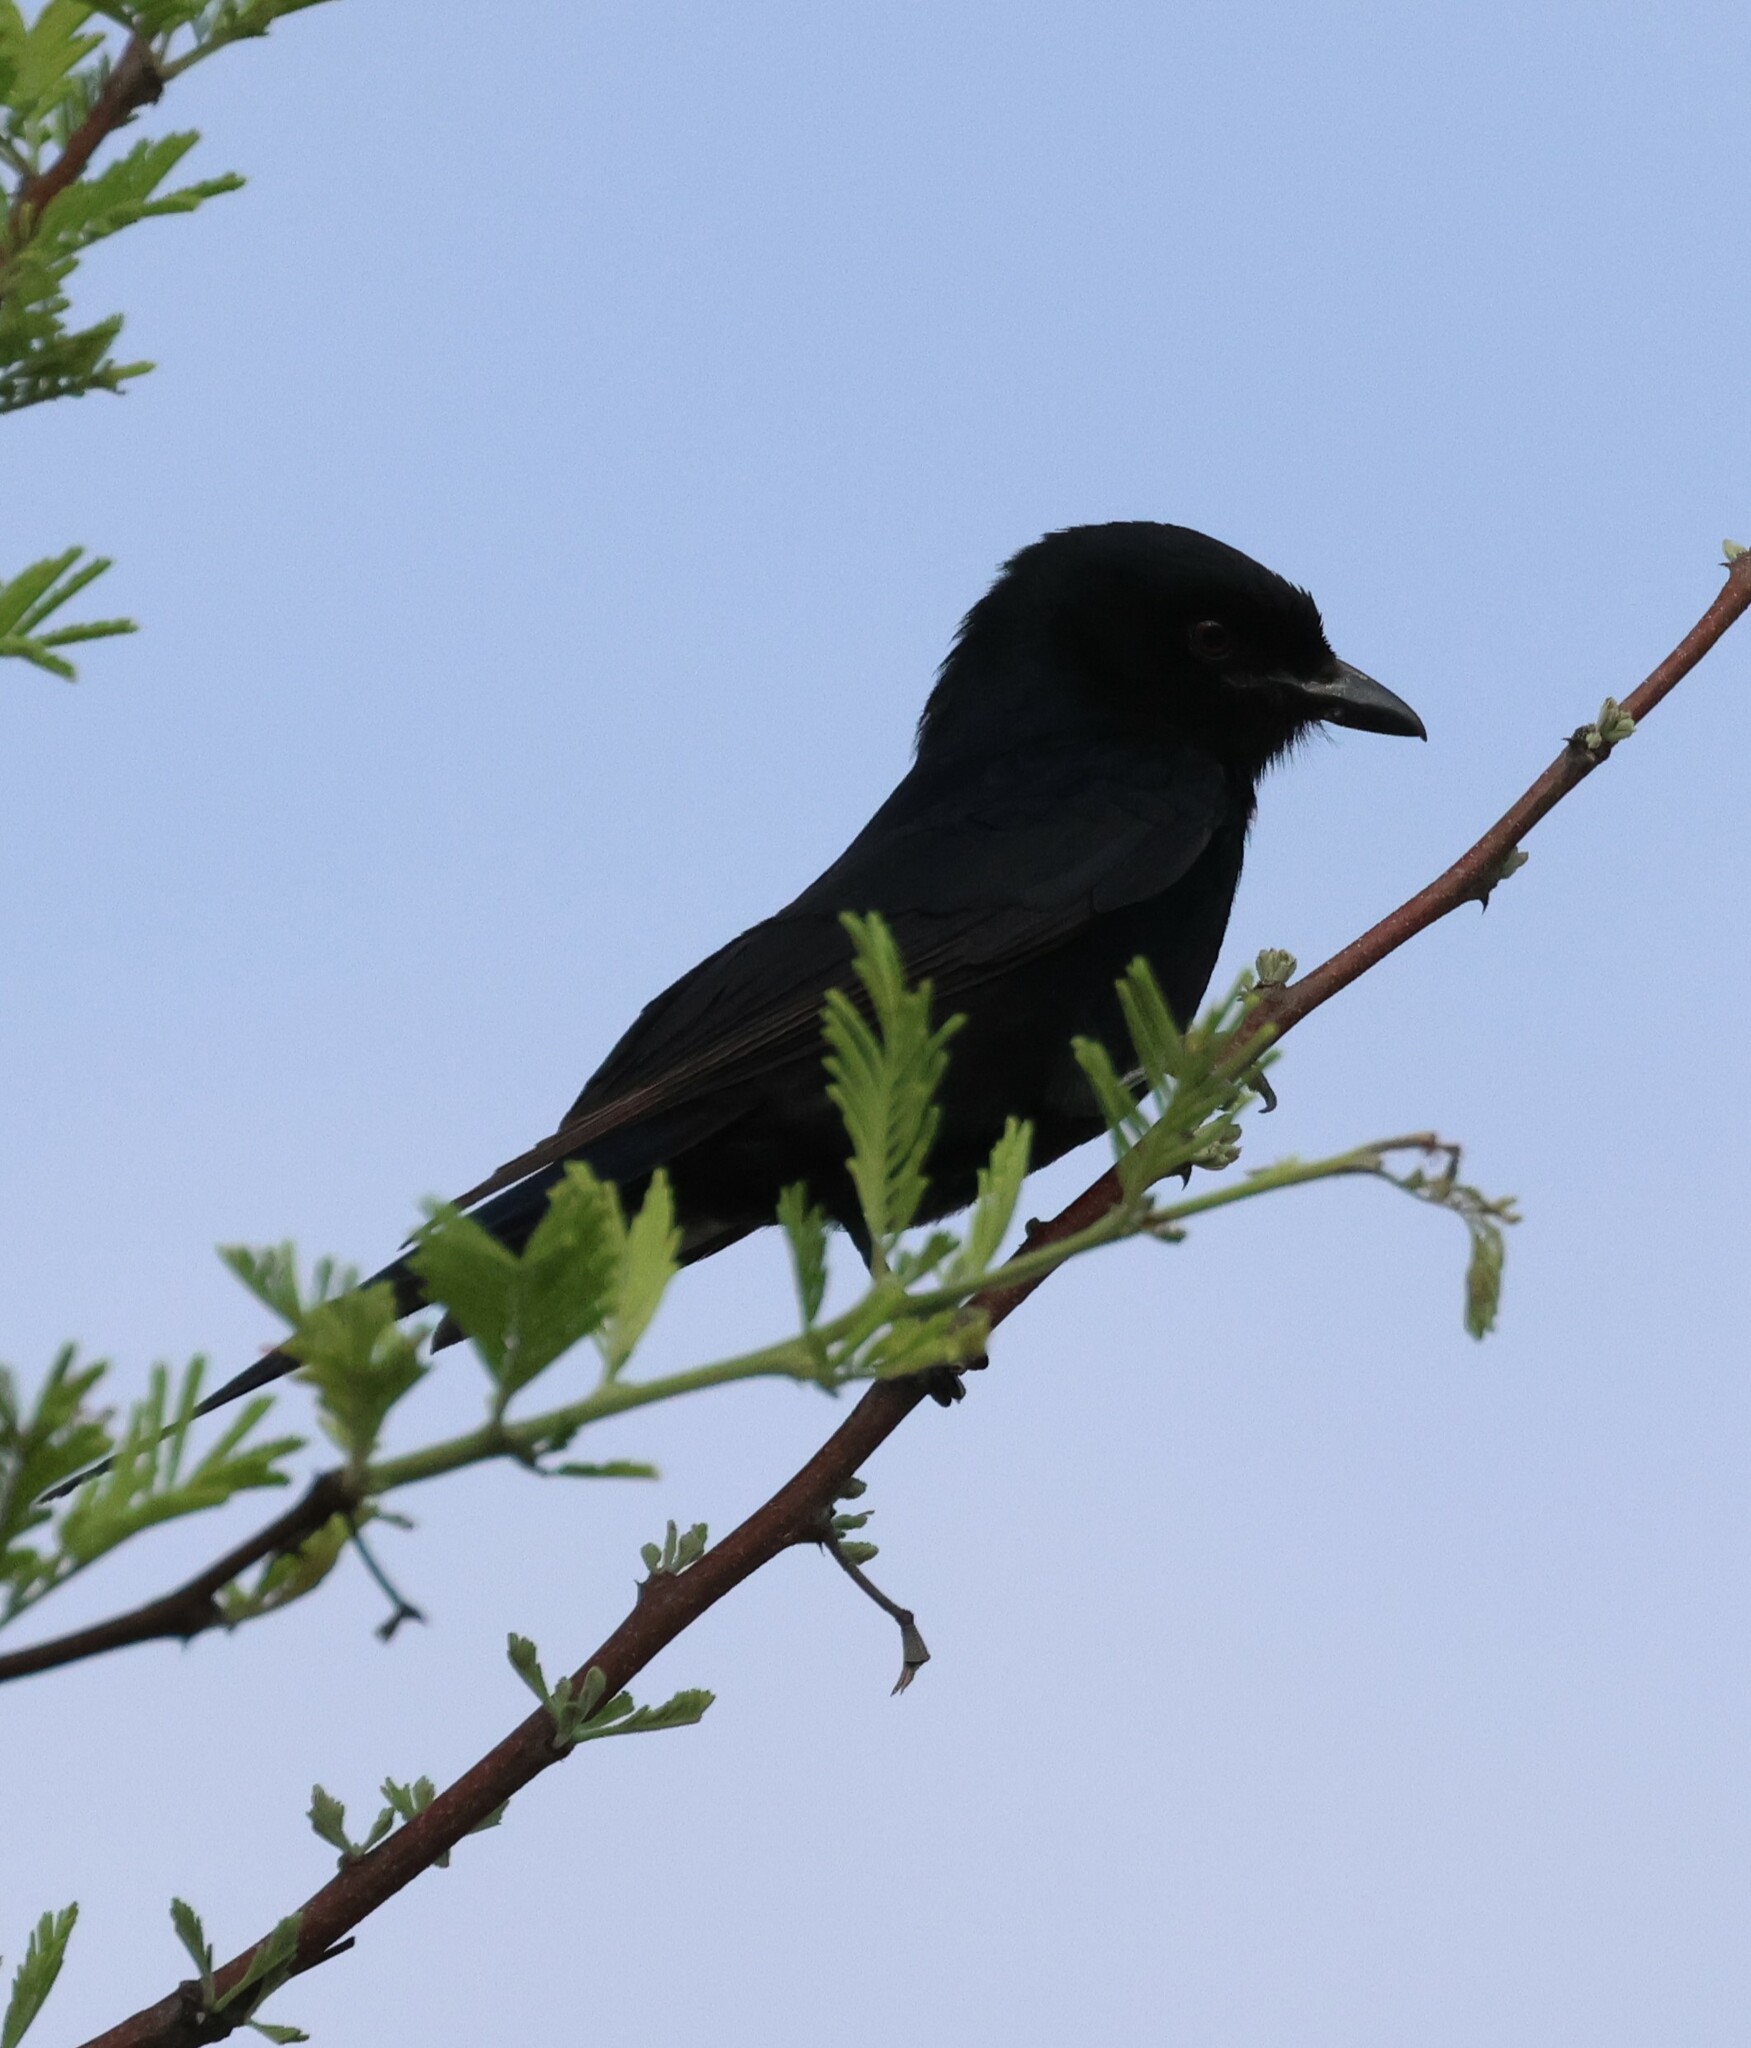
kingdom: Animalia
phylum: Chordata
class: Aves
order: Passeriformes
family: Dicruridae
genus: Dicrurus
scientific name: Dicrurus adsimilis
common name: Fork-tailed drongo
